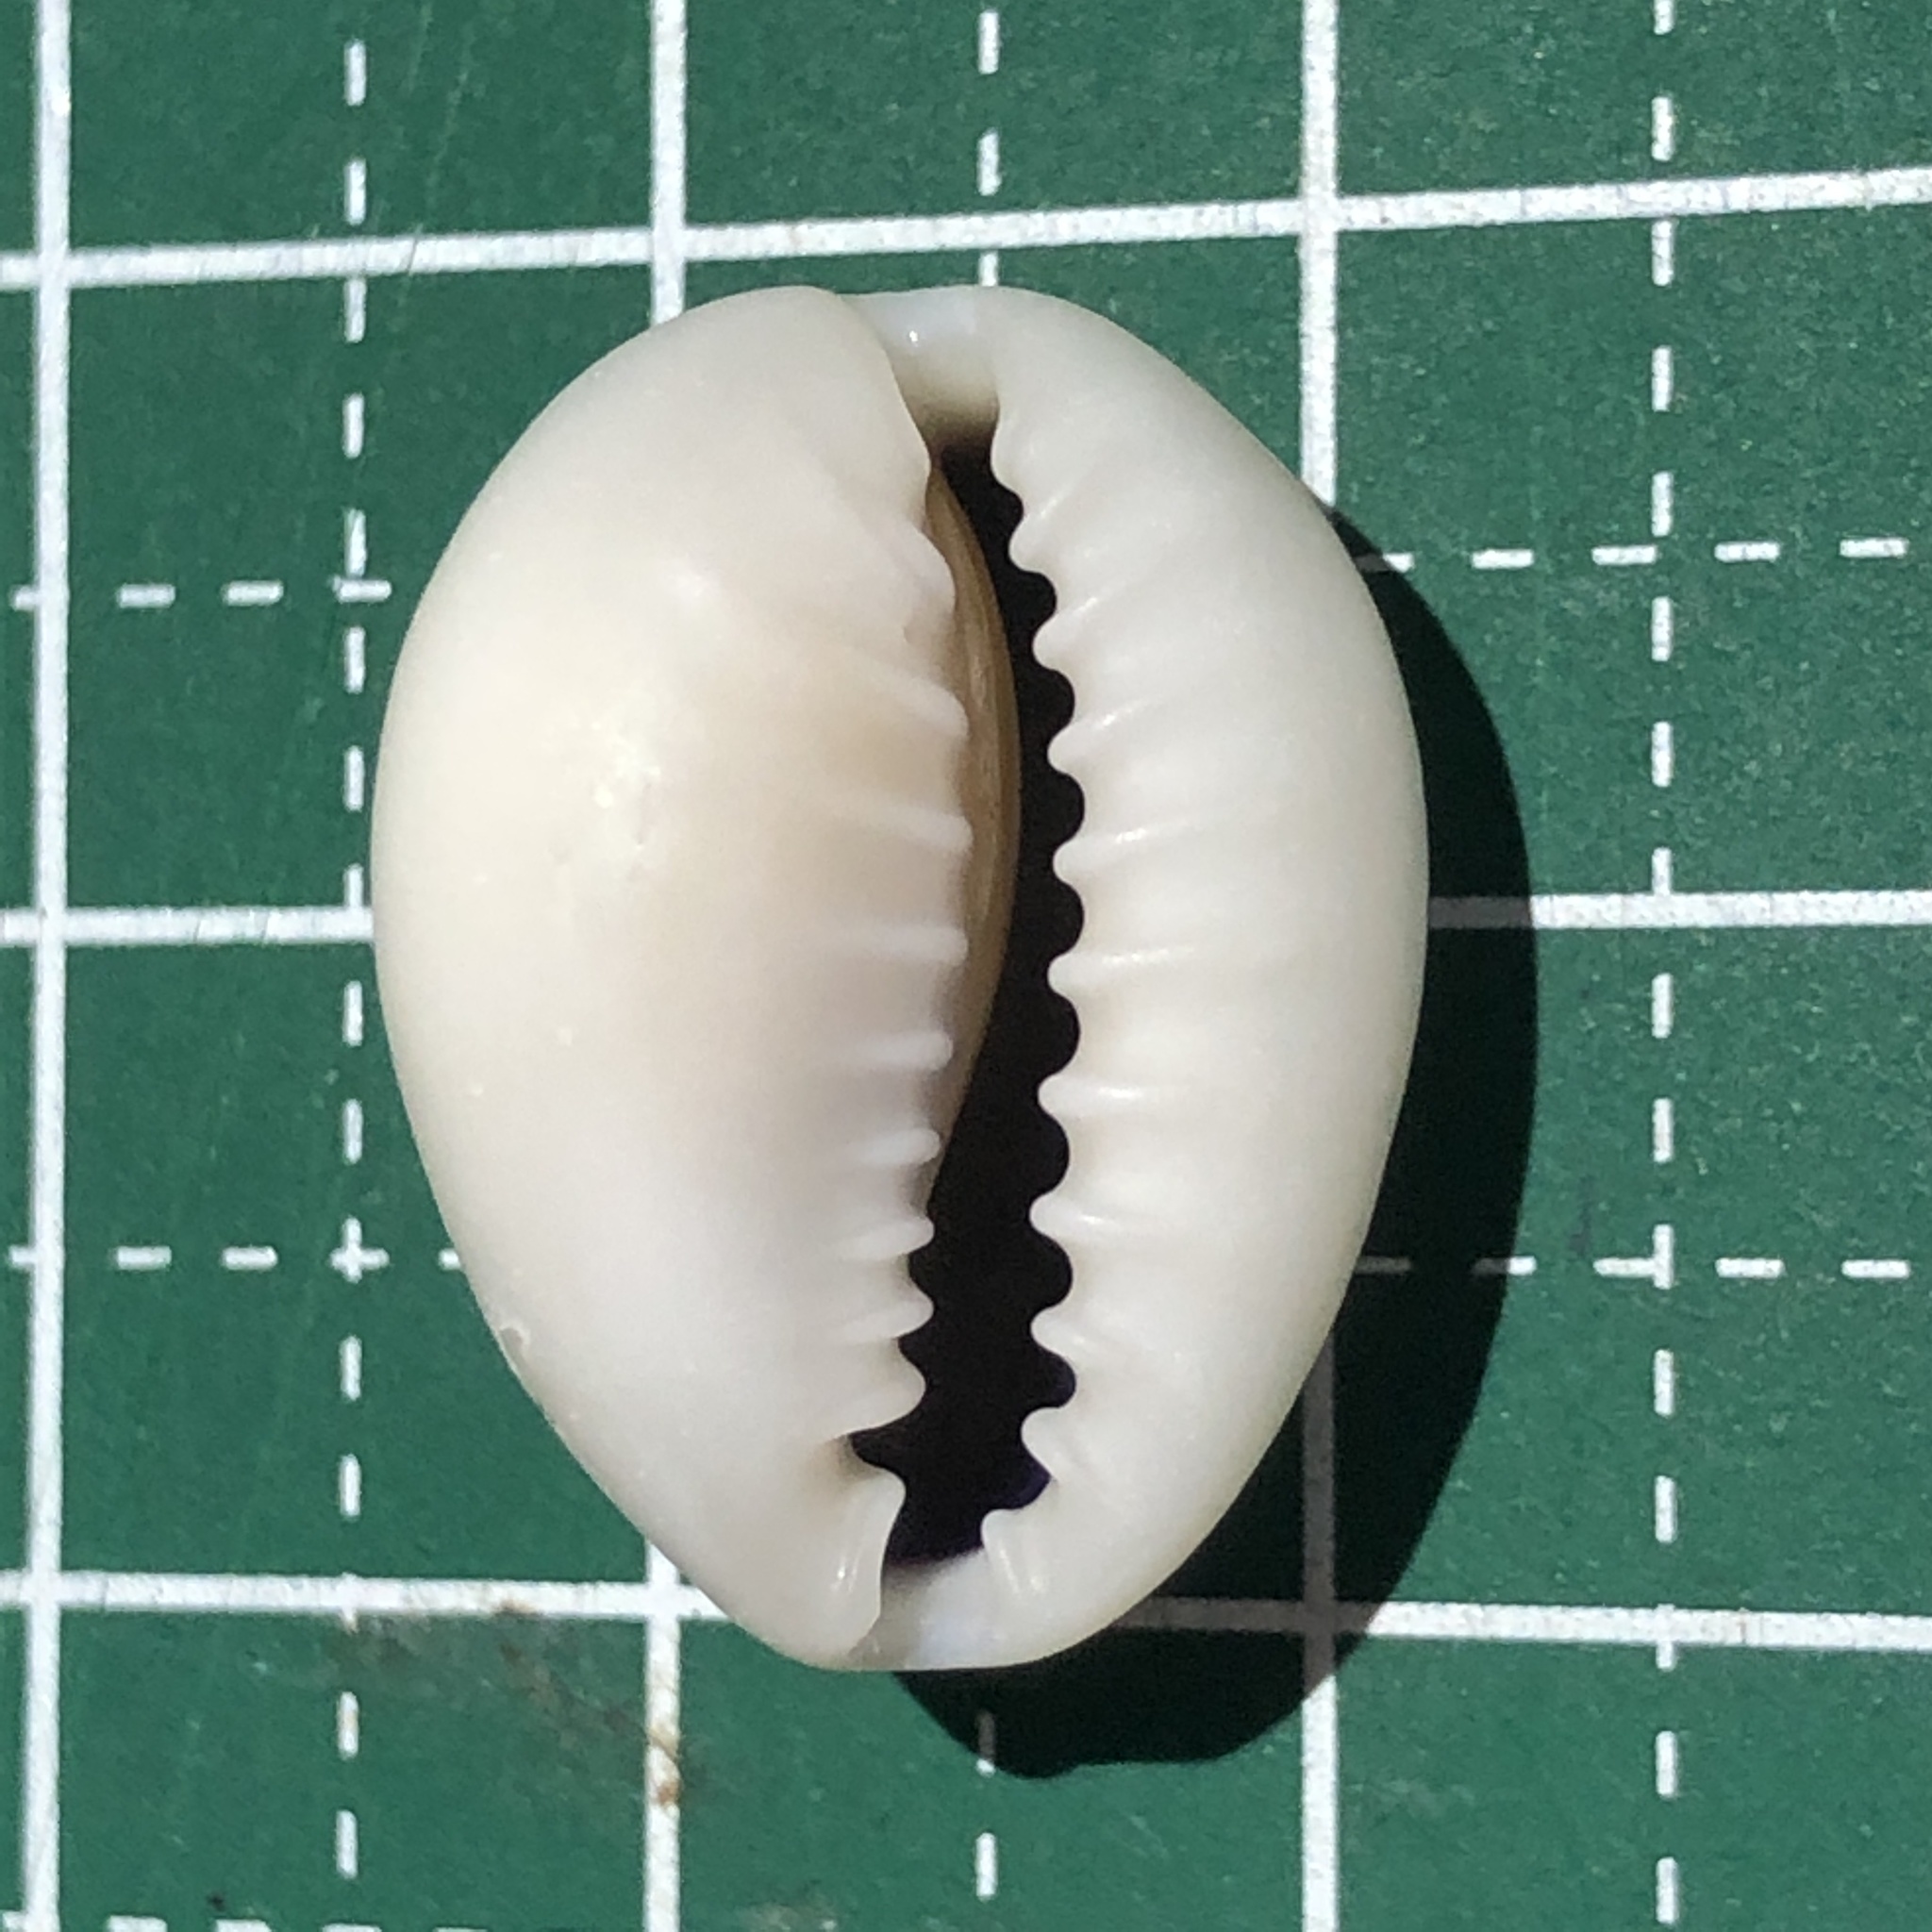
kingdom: Animalia
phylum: Mollusca
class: Gastropoda
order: Littorinimorpha
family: Cypraeidae
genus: Monetaria
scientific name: Monetaria annulus
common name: Ring cowrie
